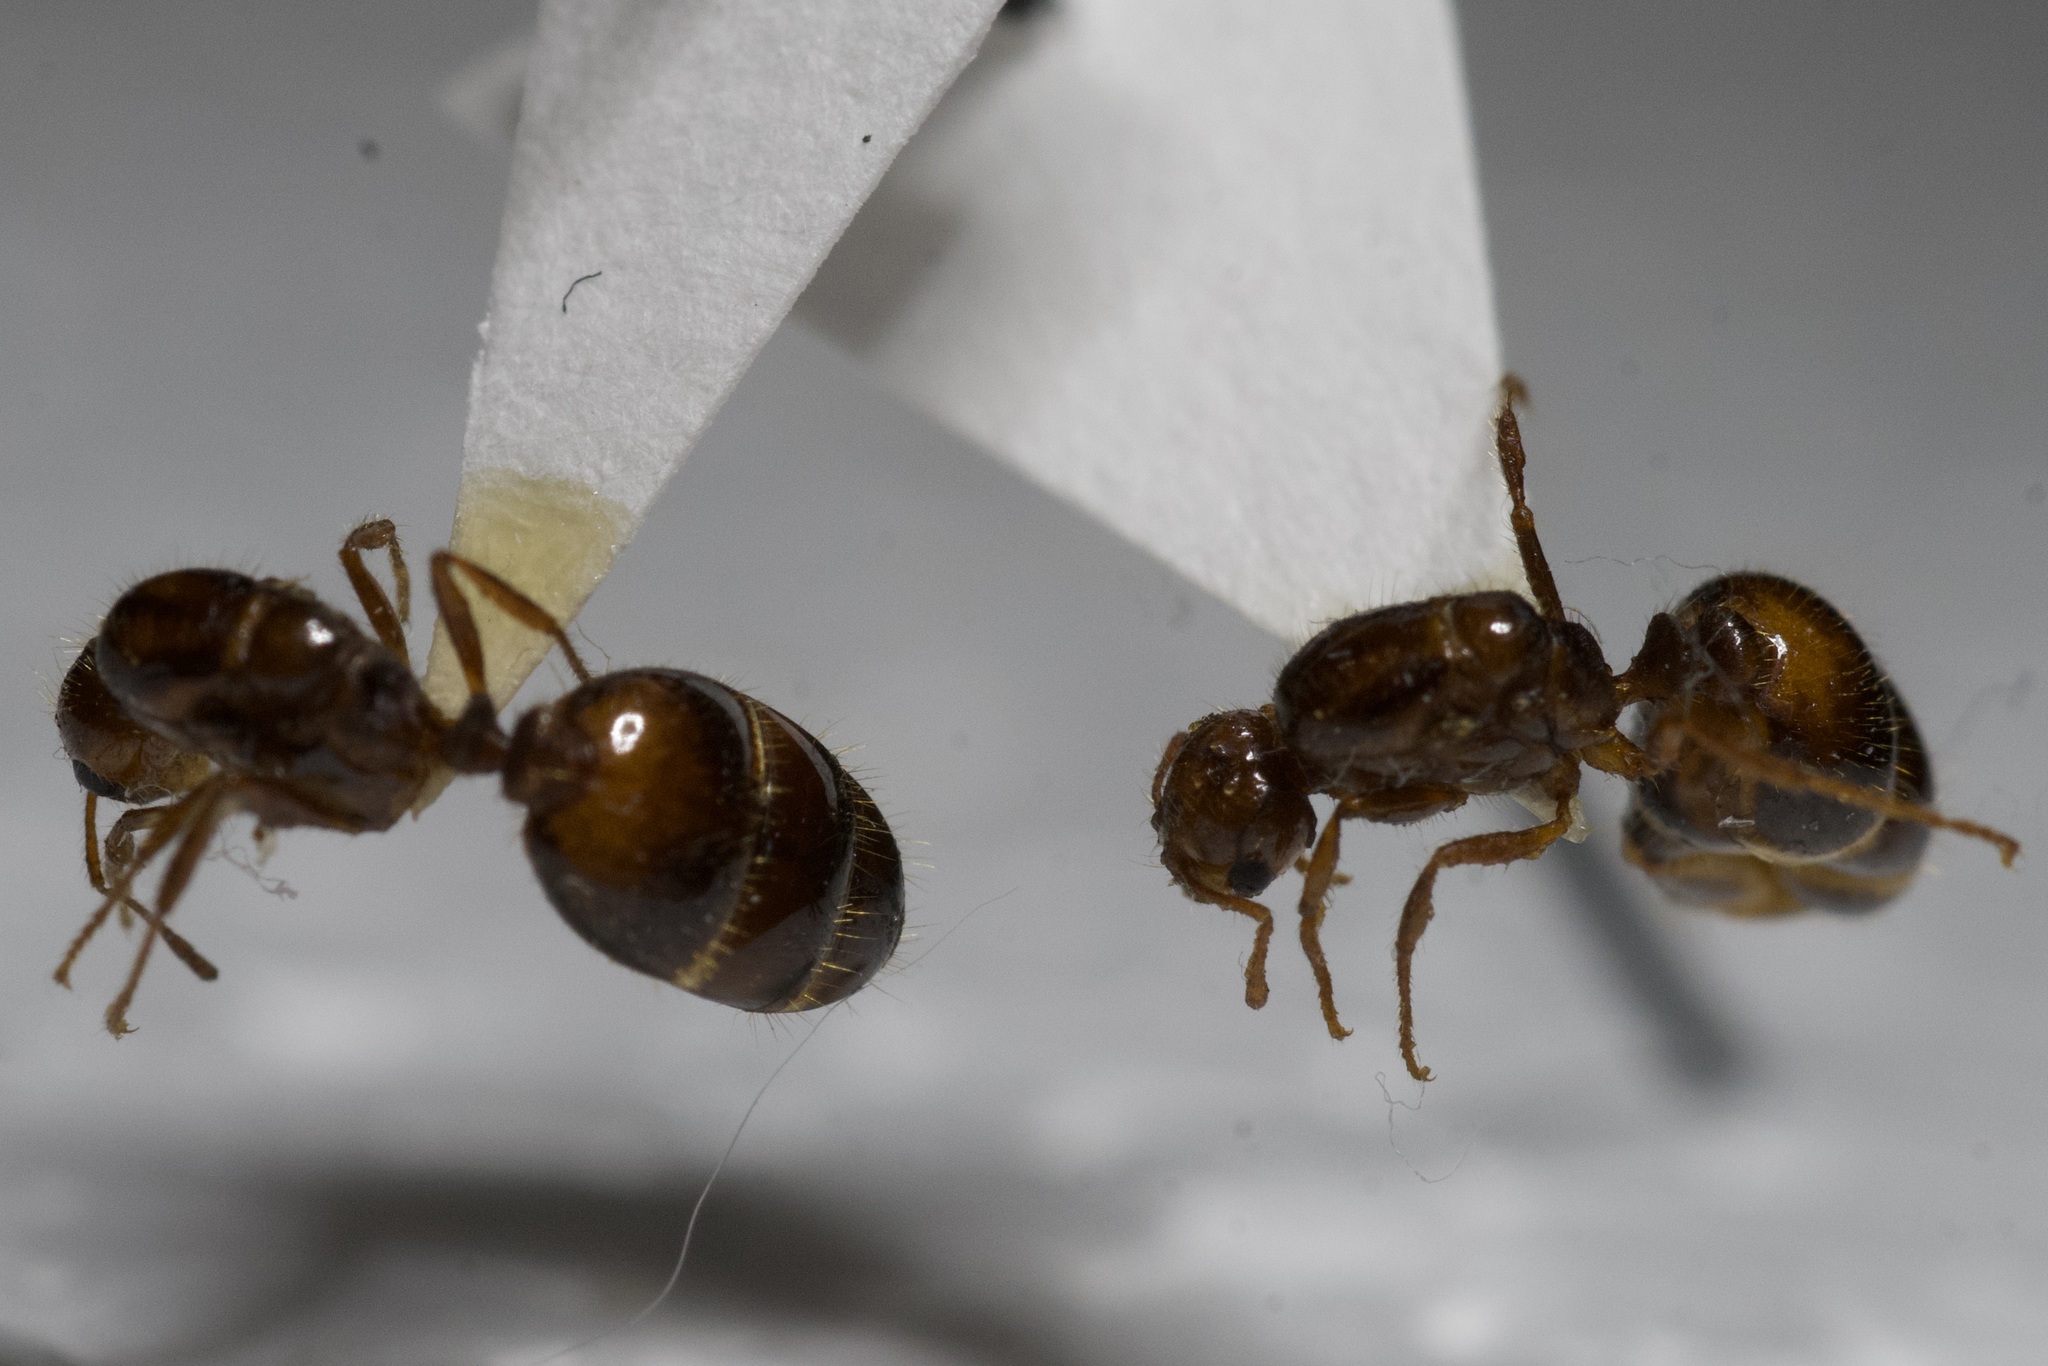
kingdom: Animalia
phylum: Arthropoda
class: Insecta
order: Hymenoptera
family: Formicidae
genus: Solenopsis
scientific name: Solenopsis invicta
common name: Red imported fire ant
